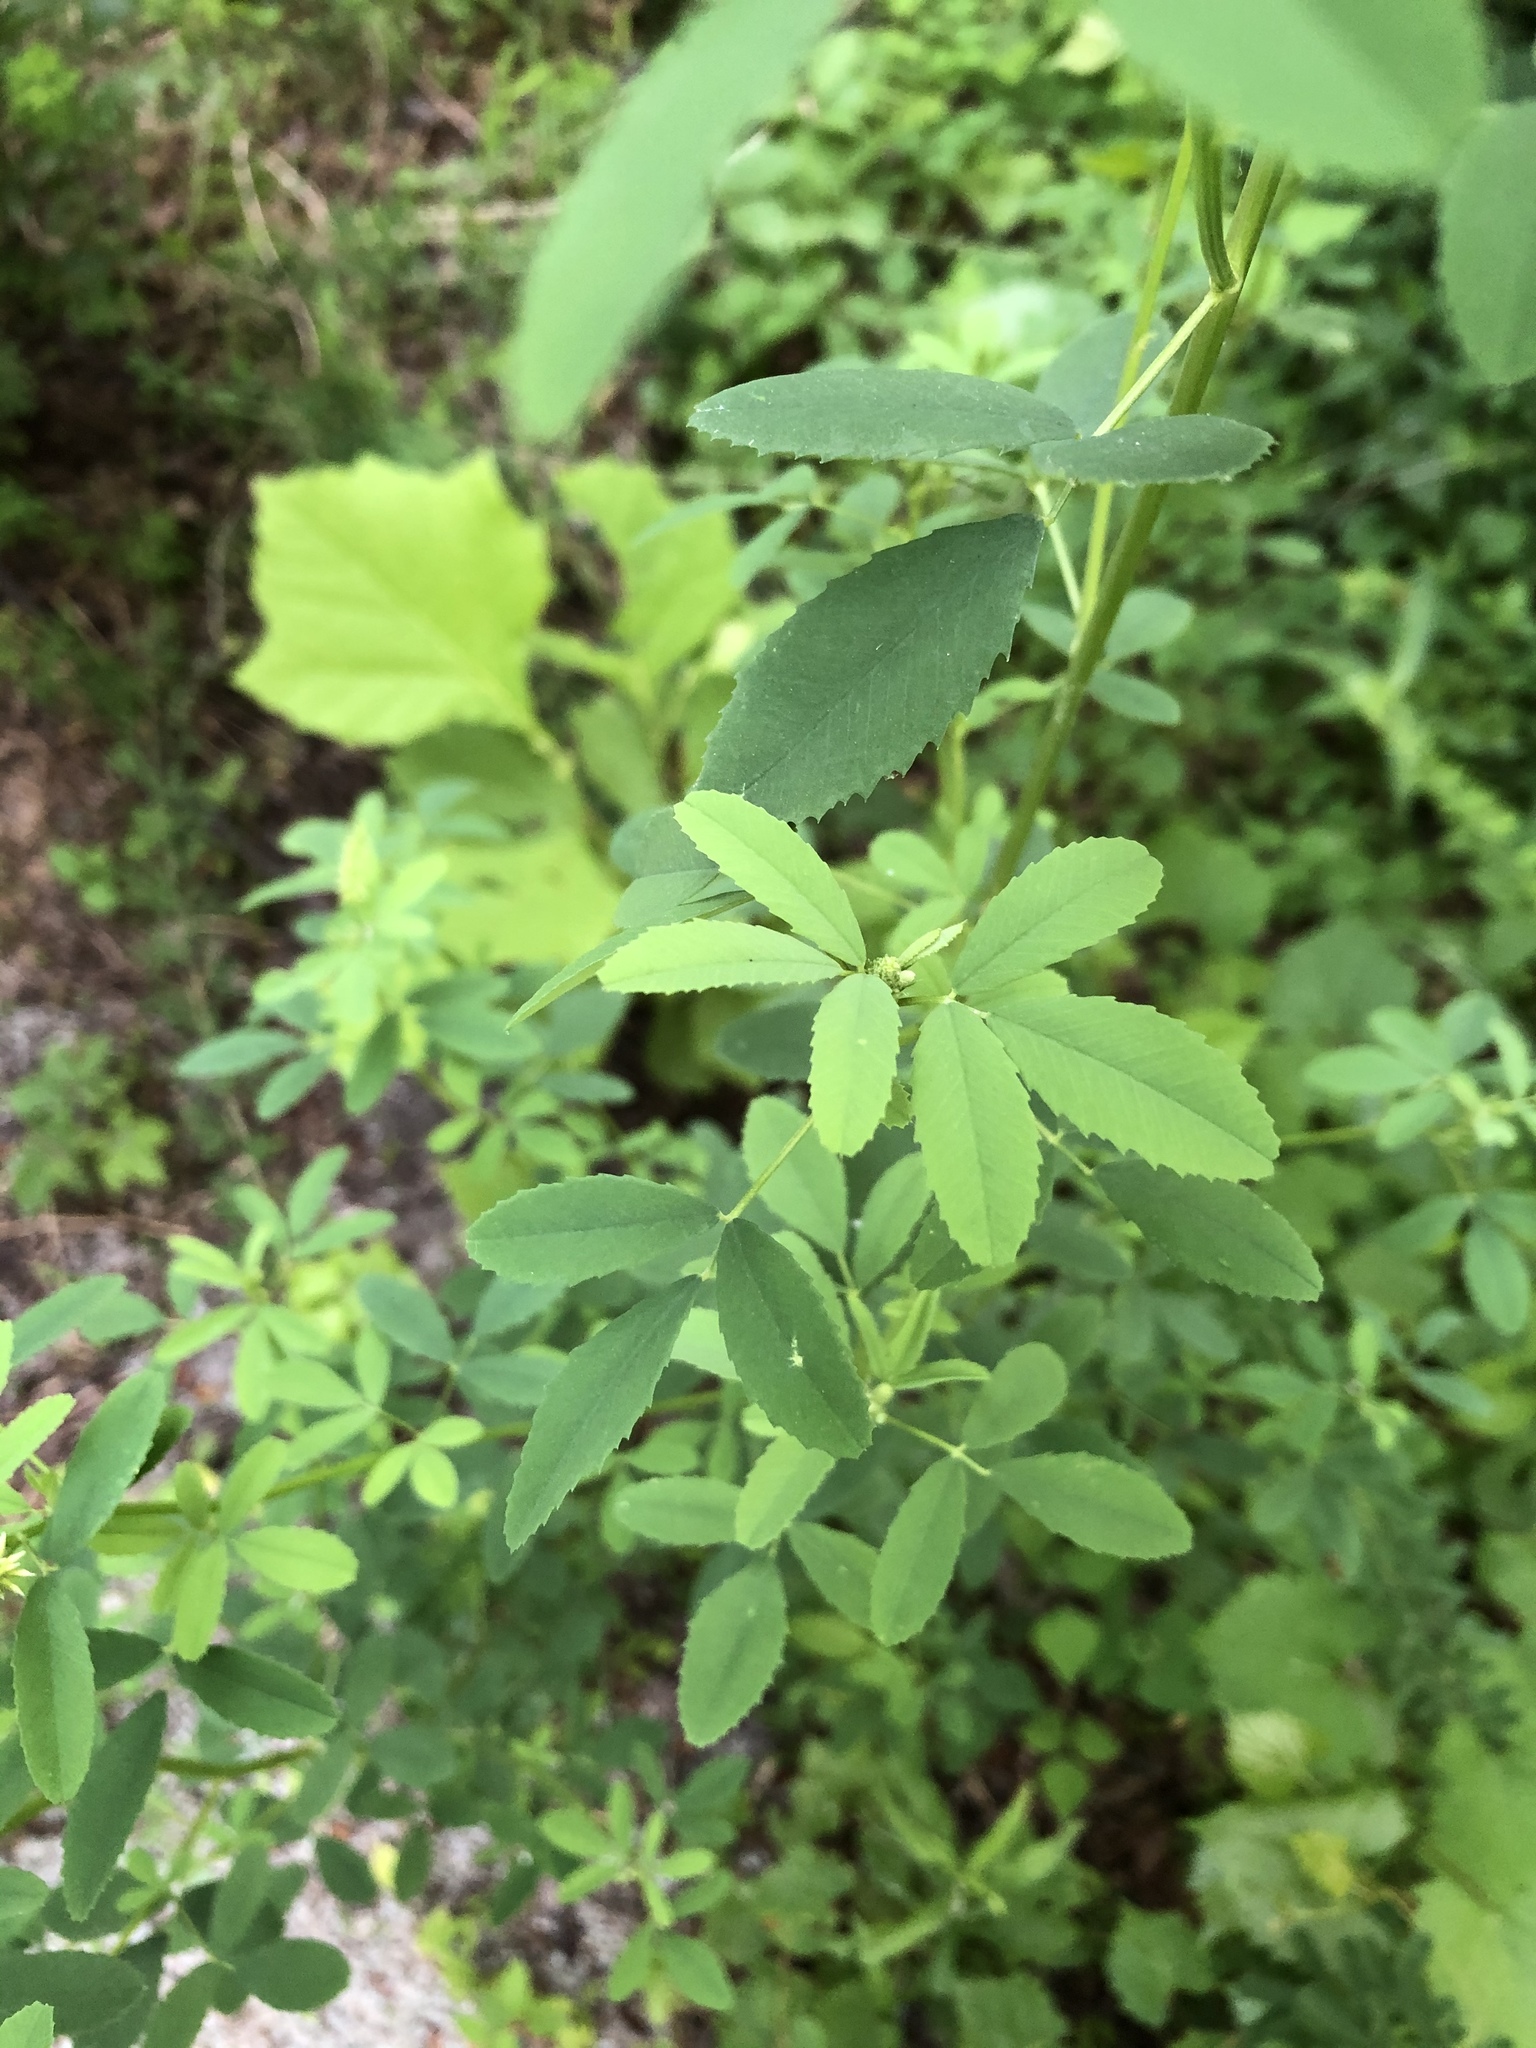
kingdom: Plantae
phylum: Tracheophyta
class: Magnoliopsida
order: Fabales
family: Fabaceae
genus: Melilotus
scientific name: Melilotus albus
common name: White melilot
